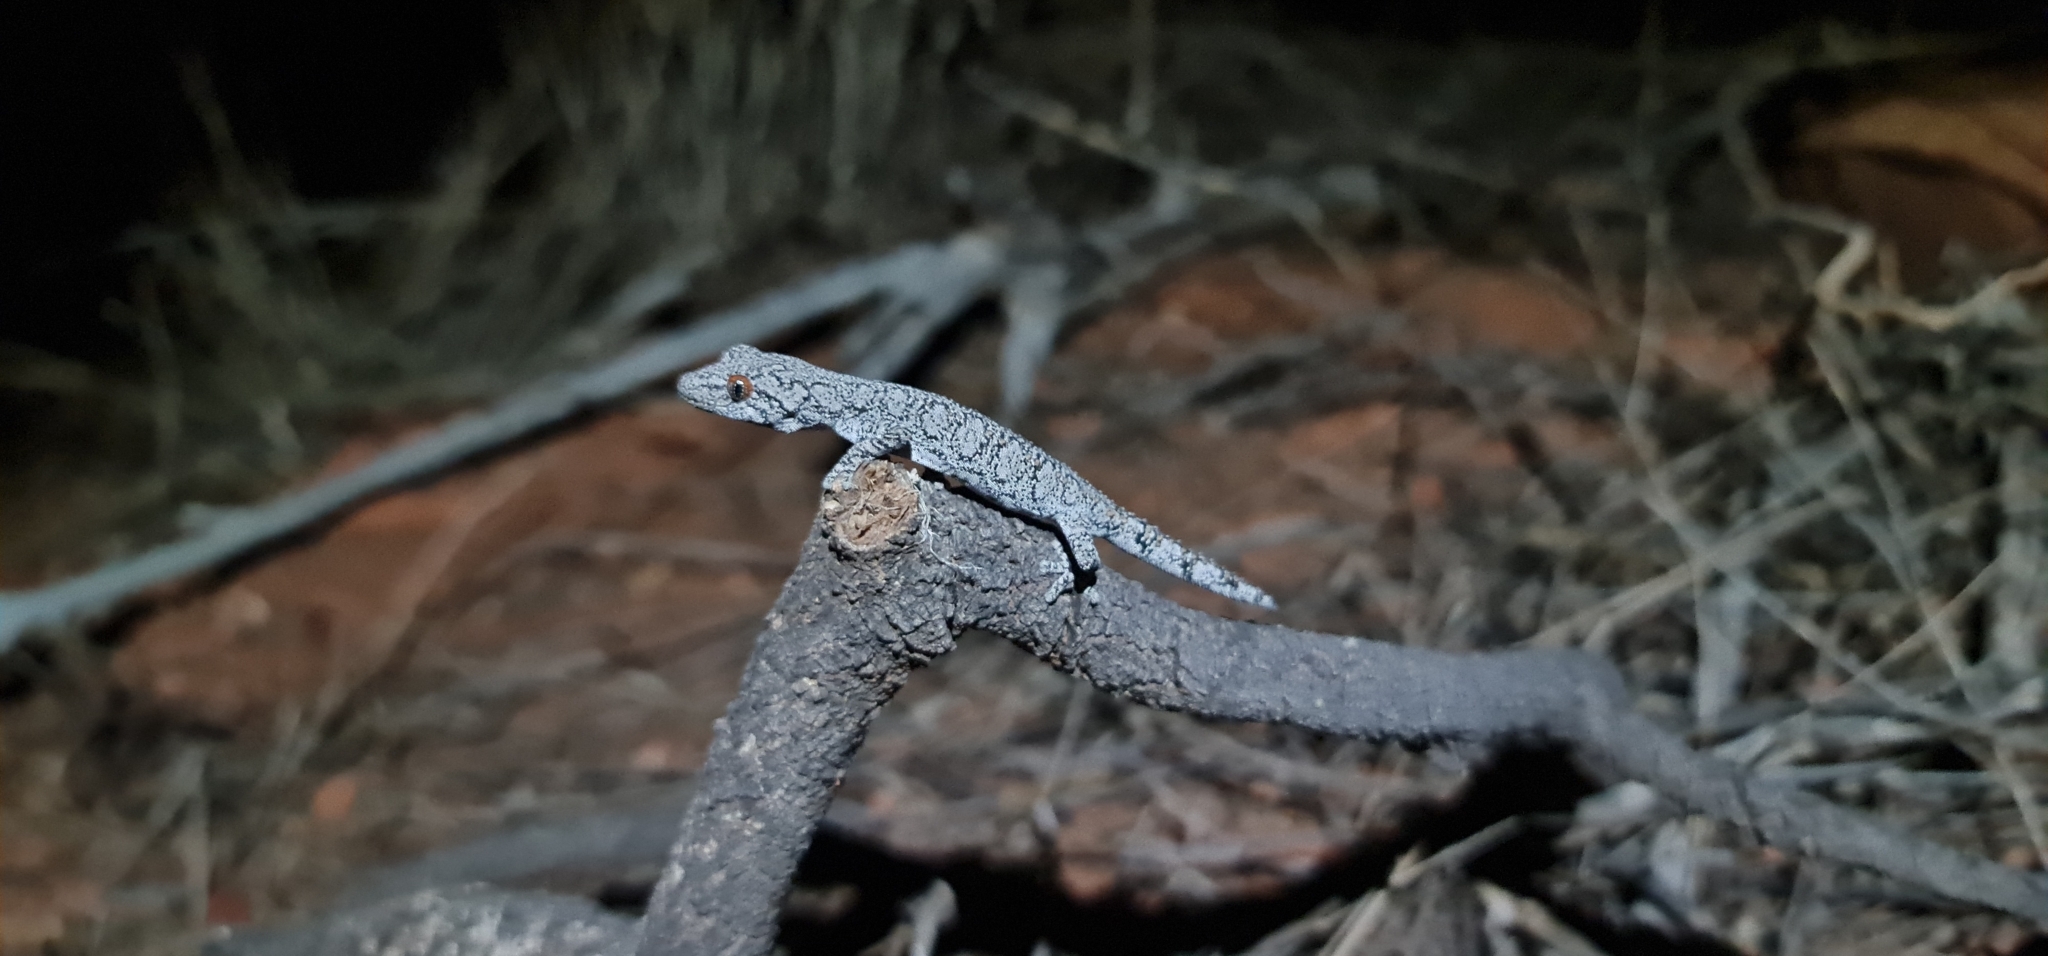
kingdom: Animalia
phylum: Chordata
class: Squamata
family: Diplodactylidae
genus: Strophurus
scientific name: Strophurus intermedius
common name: Eastern spiny-tailed gecko
